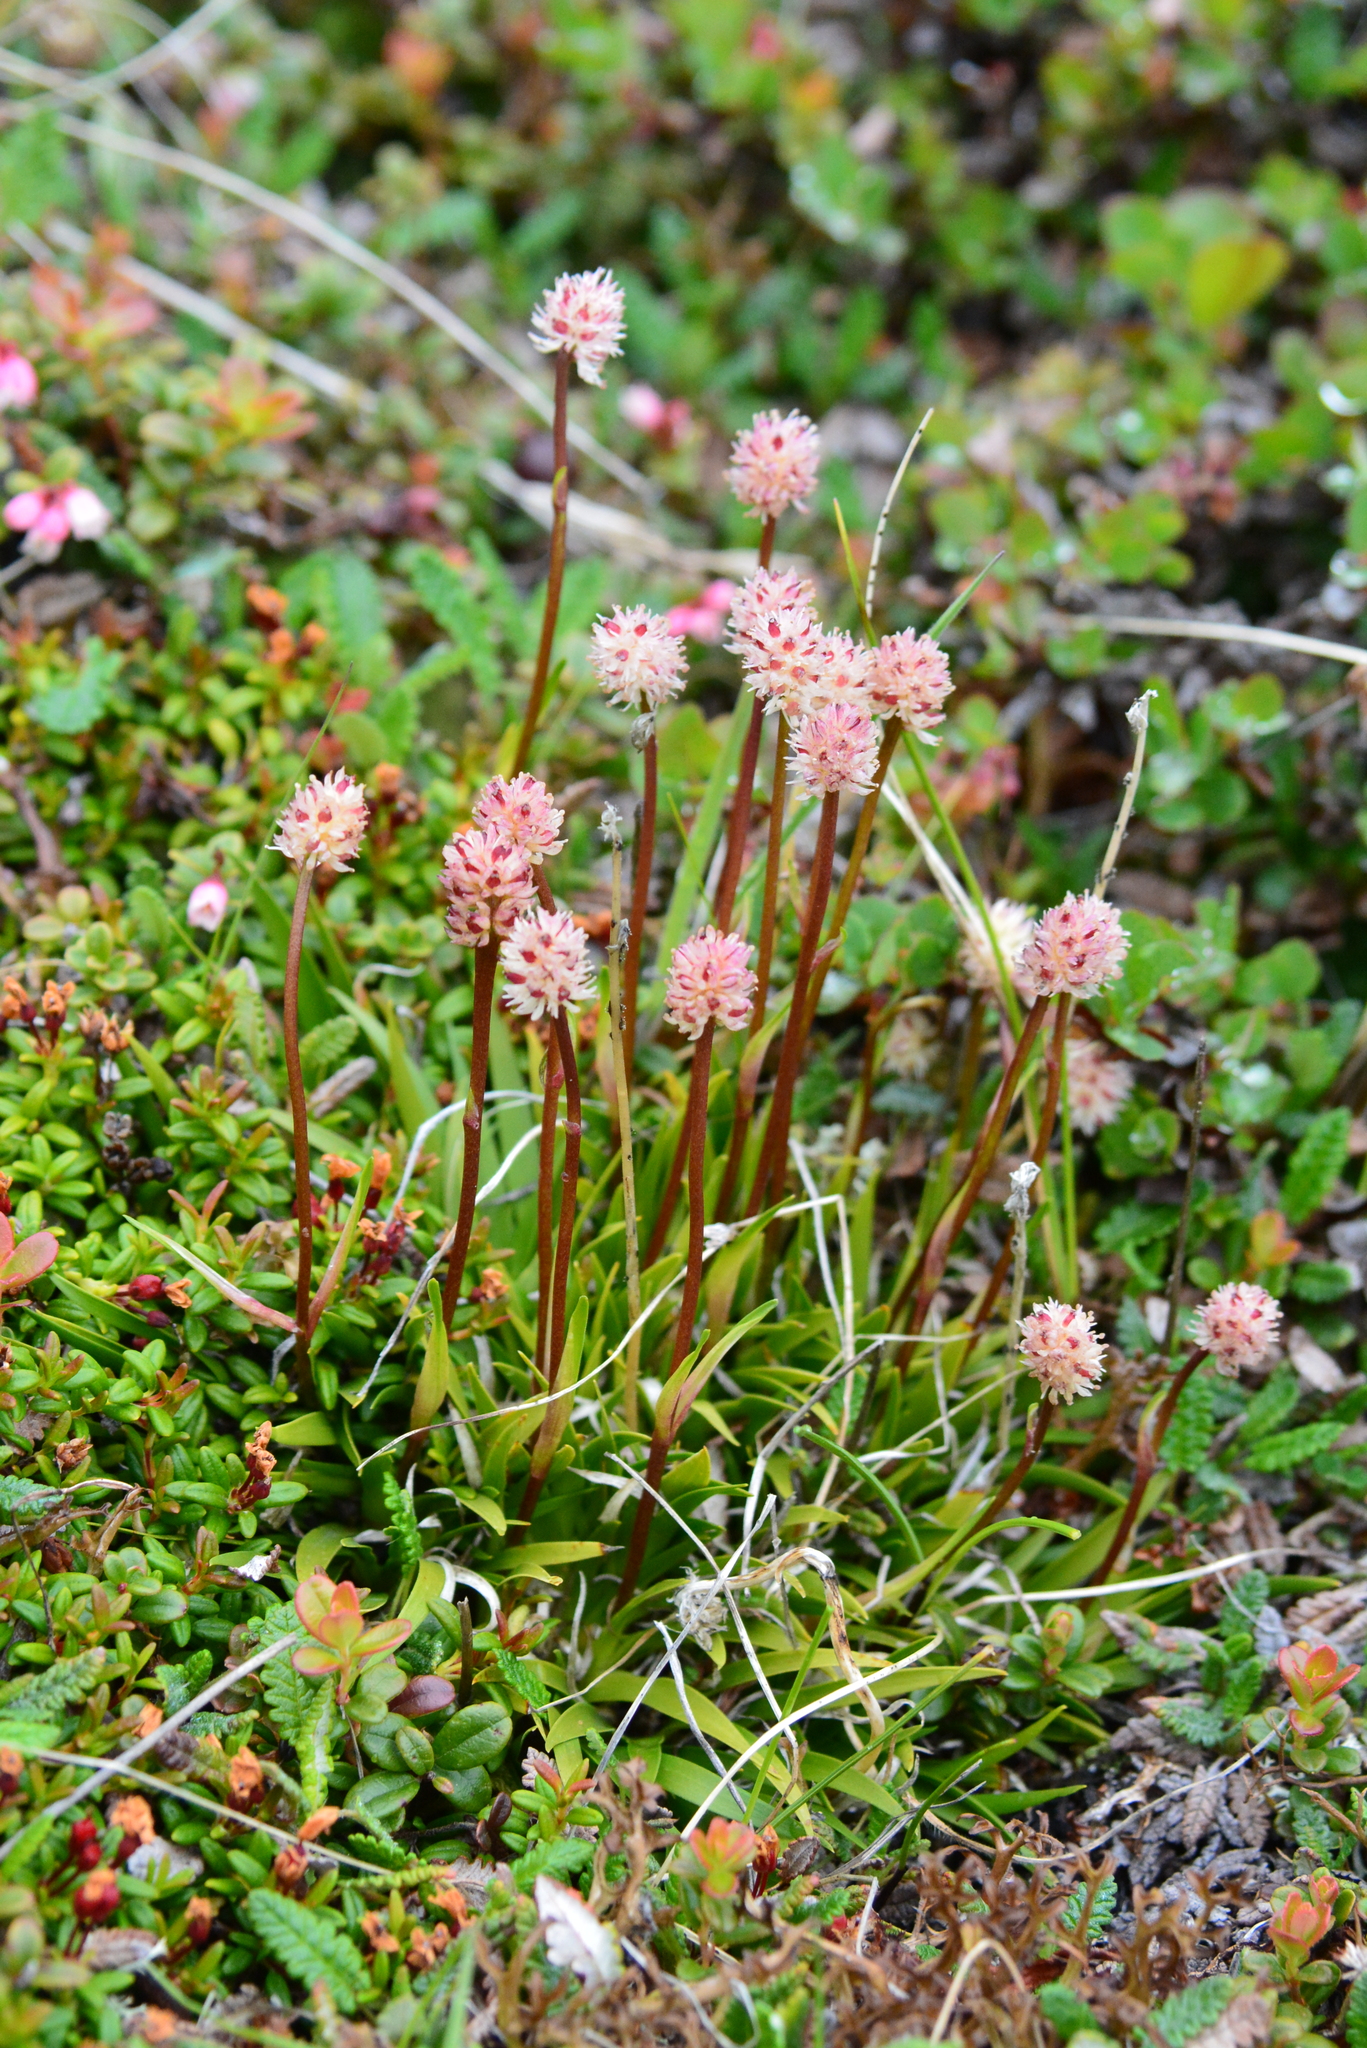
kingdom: Plantae
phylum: Tracheophyta
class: Liliopsida
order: Alismatales
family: Tofieldiaceae
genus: Tofieldia
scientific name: Tofieldia coccinea
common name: Northern false asphodel
